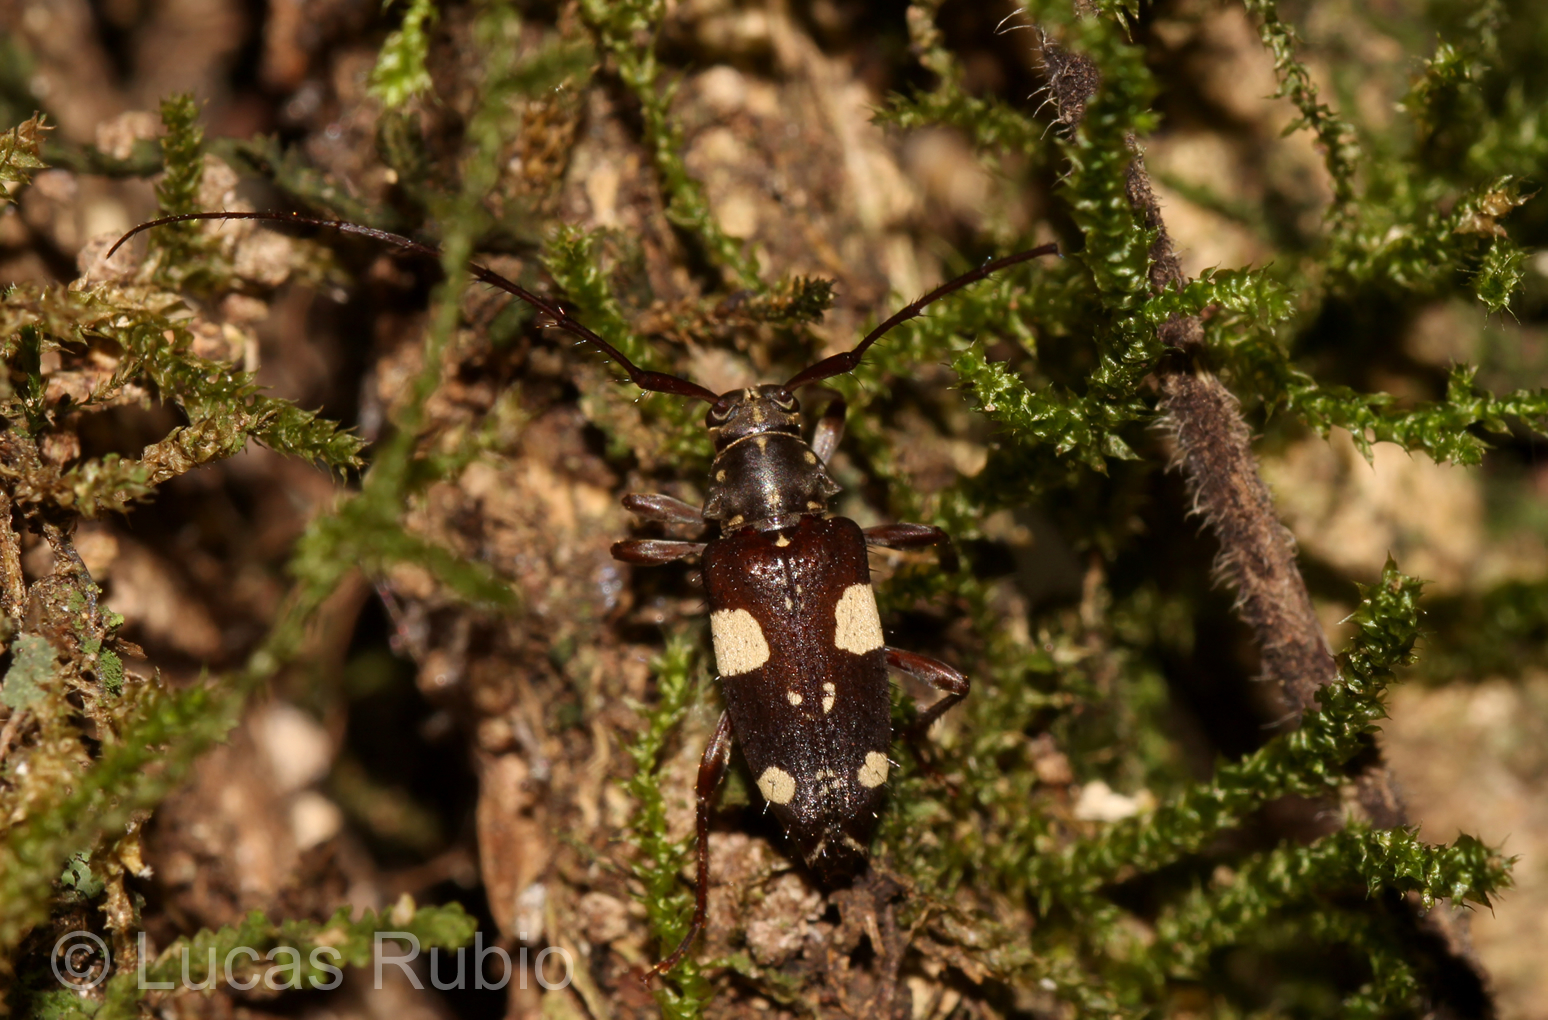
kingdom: Animalia
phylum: Arthropoda
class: Insecta
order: Coleoptera
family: Cerambycidae
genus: Alcidion
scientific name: Alcidion ludicrum
